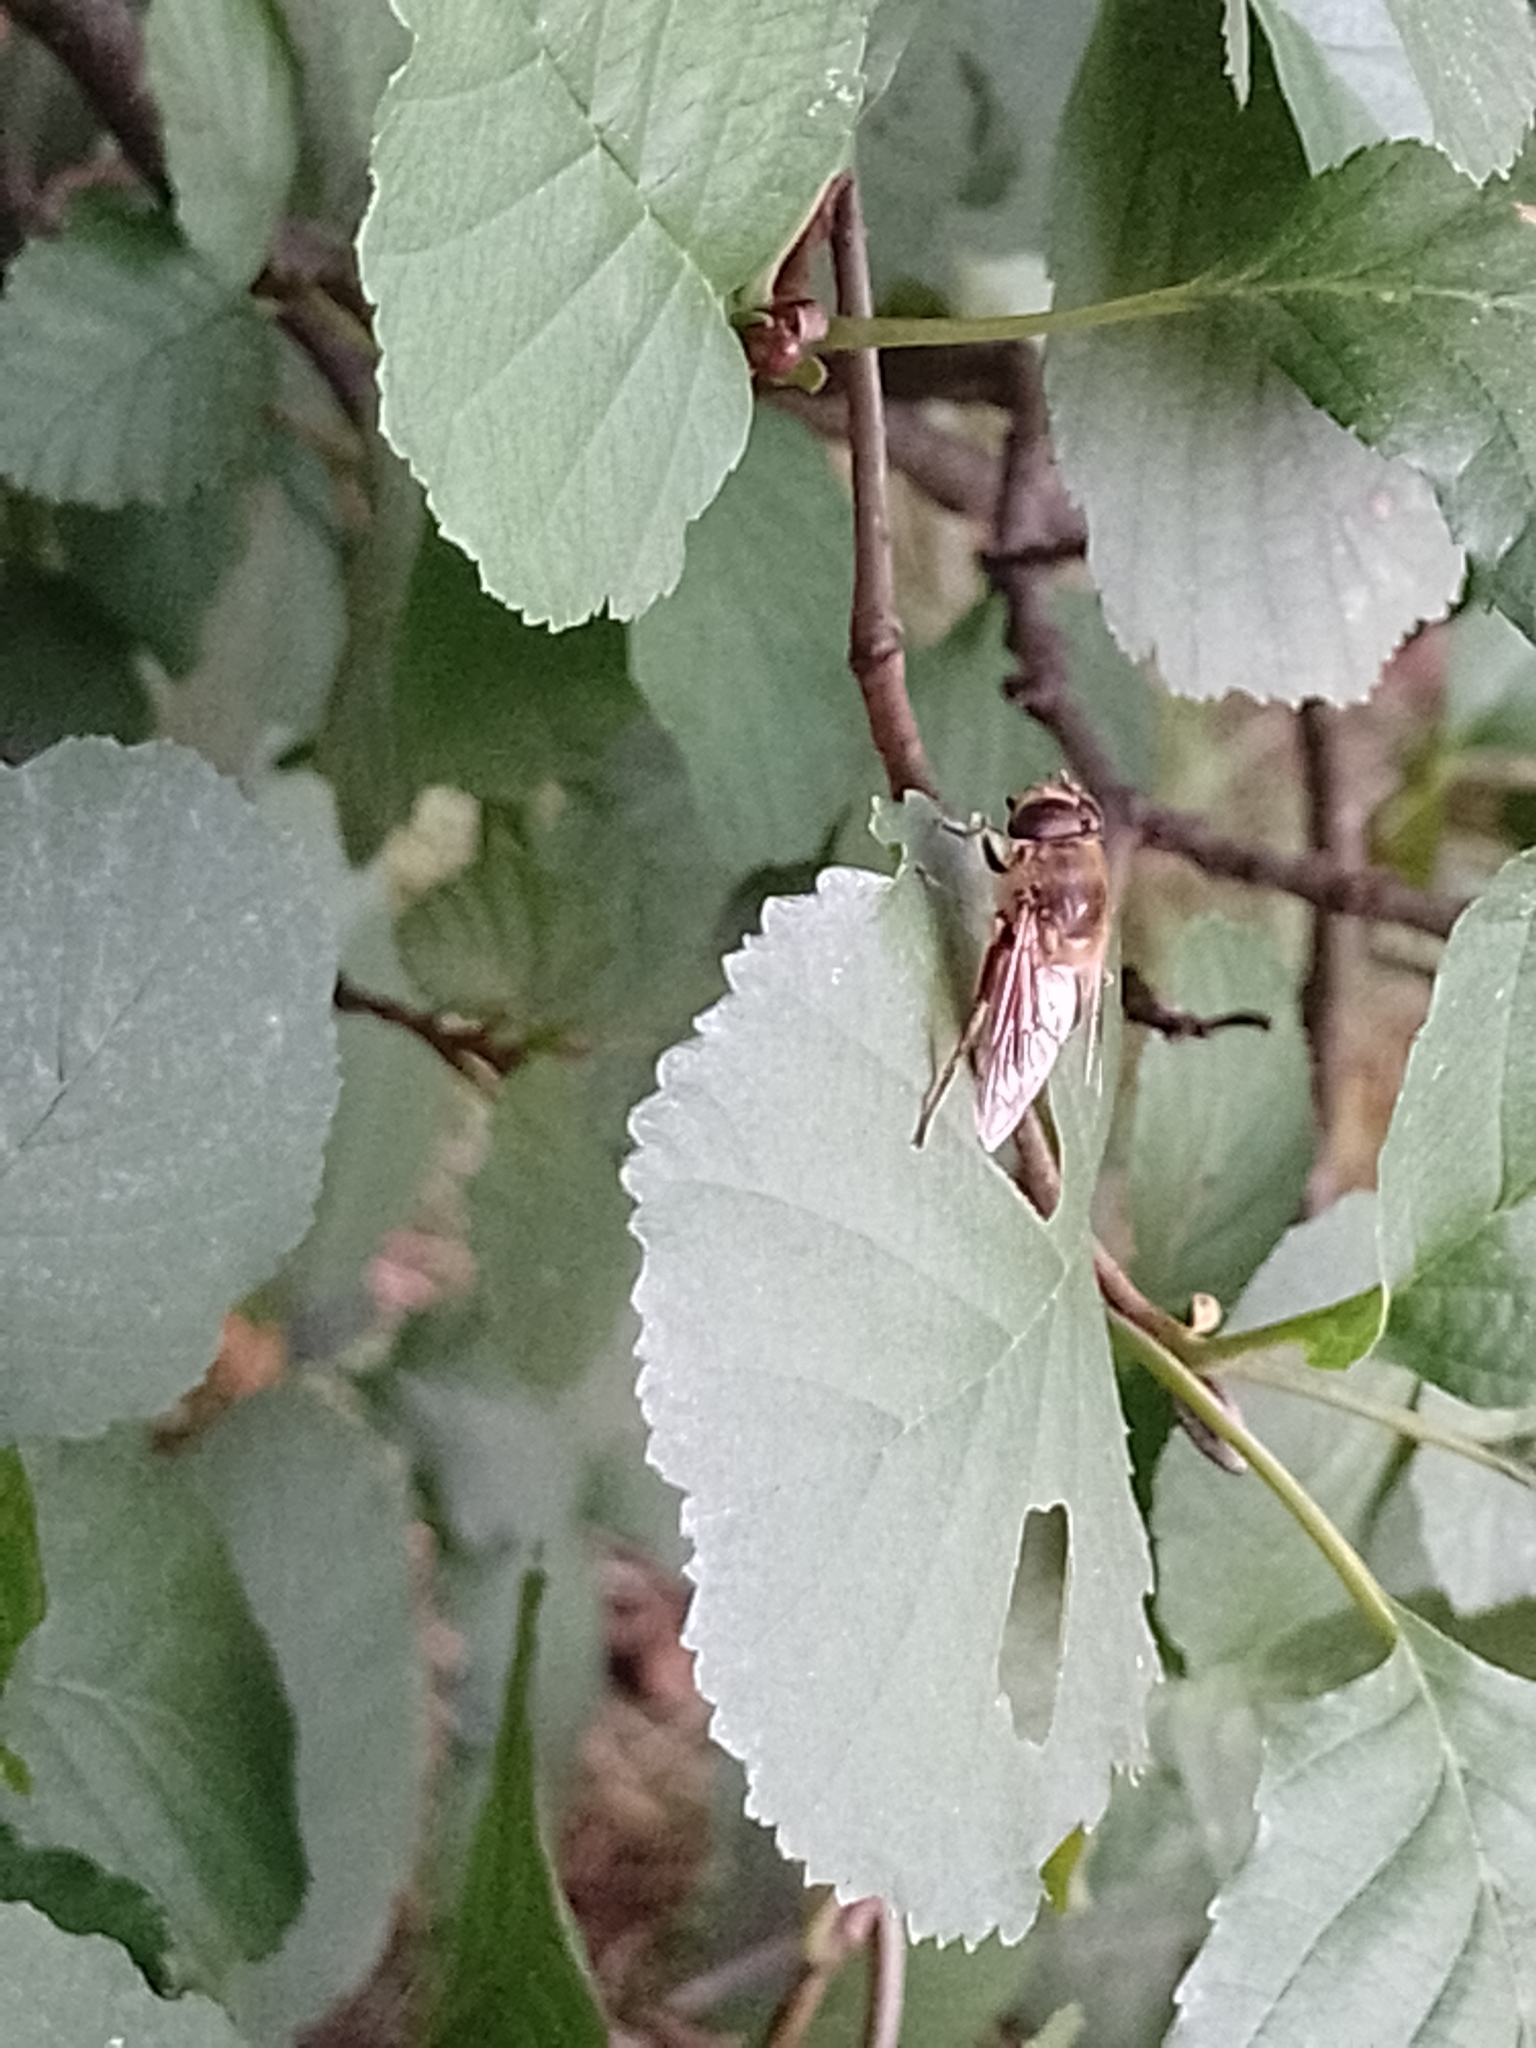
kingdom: Animalia
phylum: Arthropoda
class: Insecta
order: Diptera
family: Syrphidae
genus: Eristalis
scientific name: Eristalis tenax
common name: Drone fly
